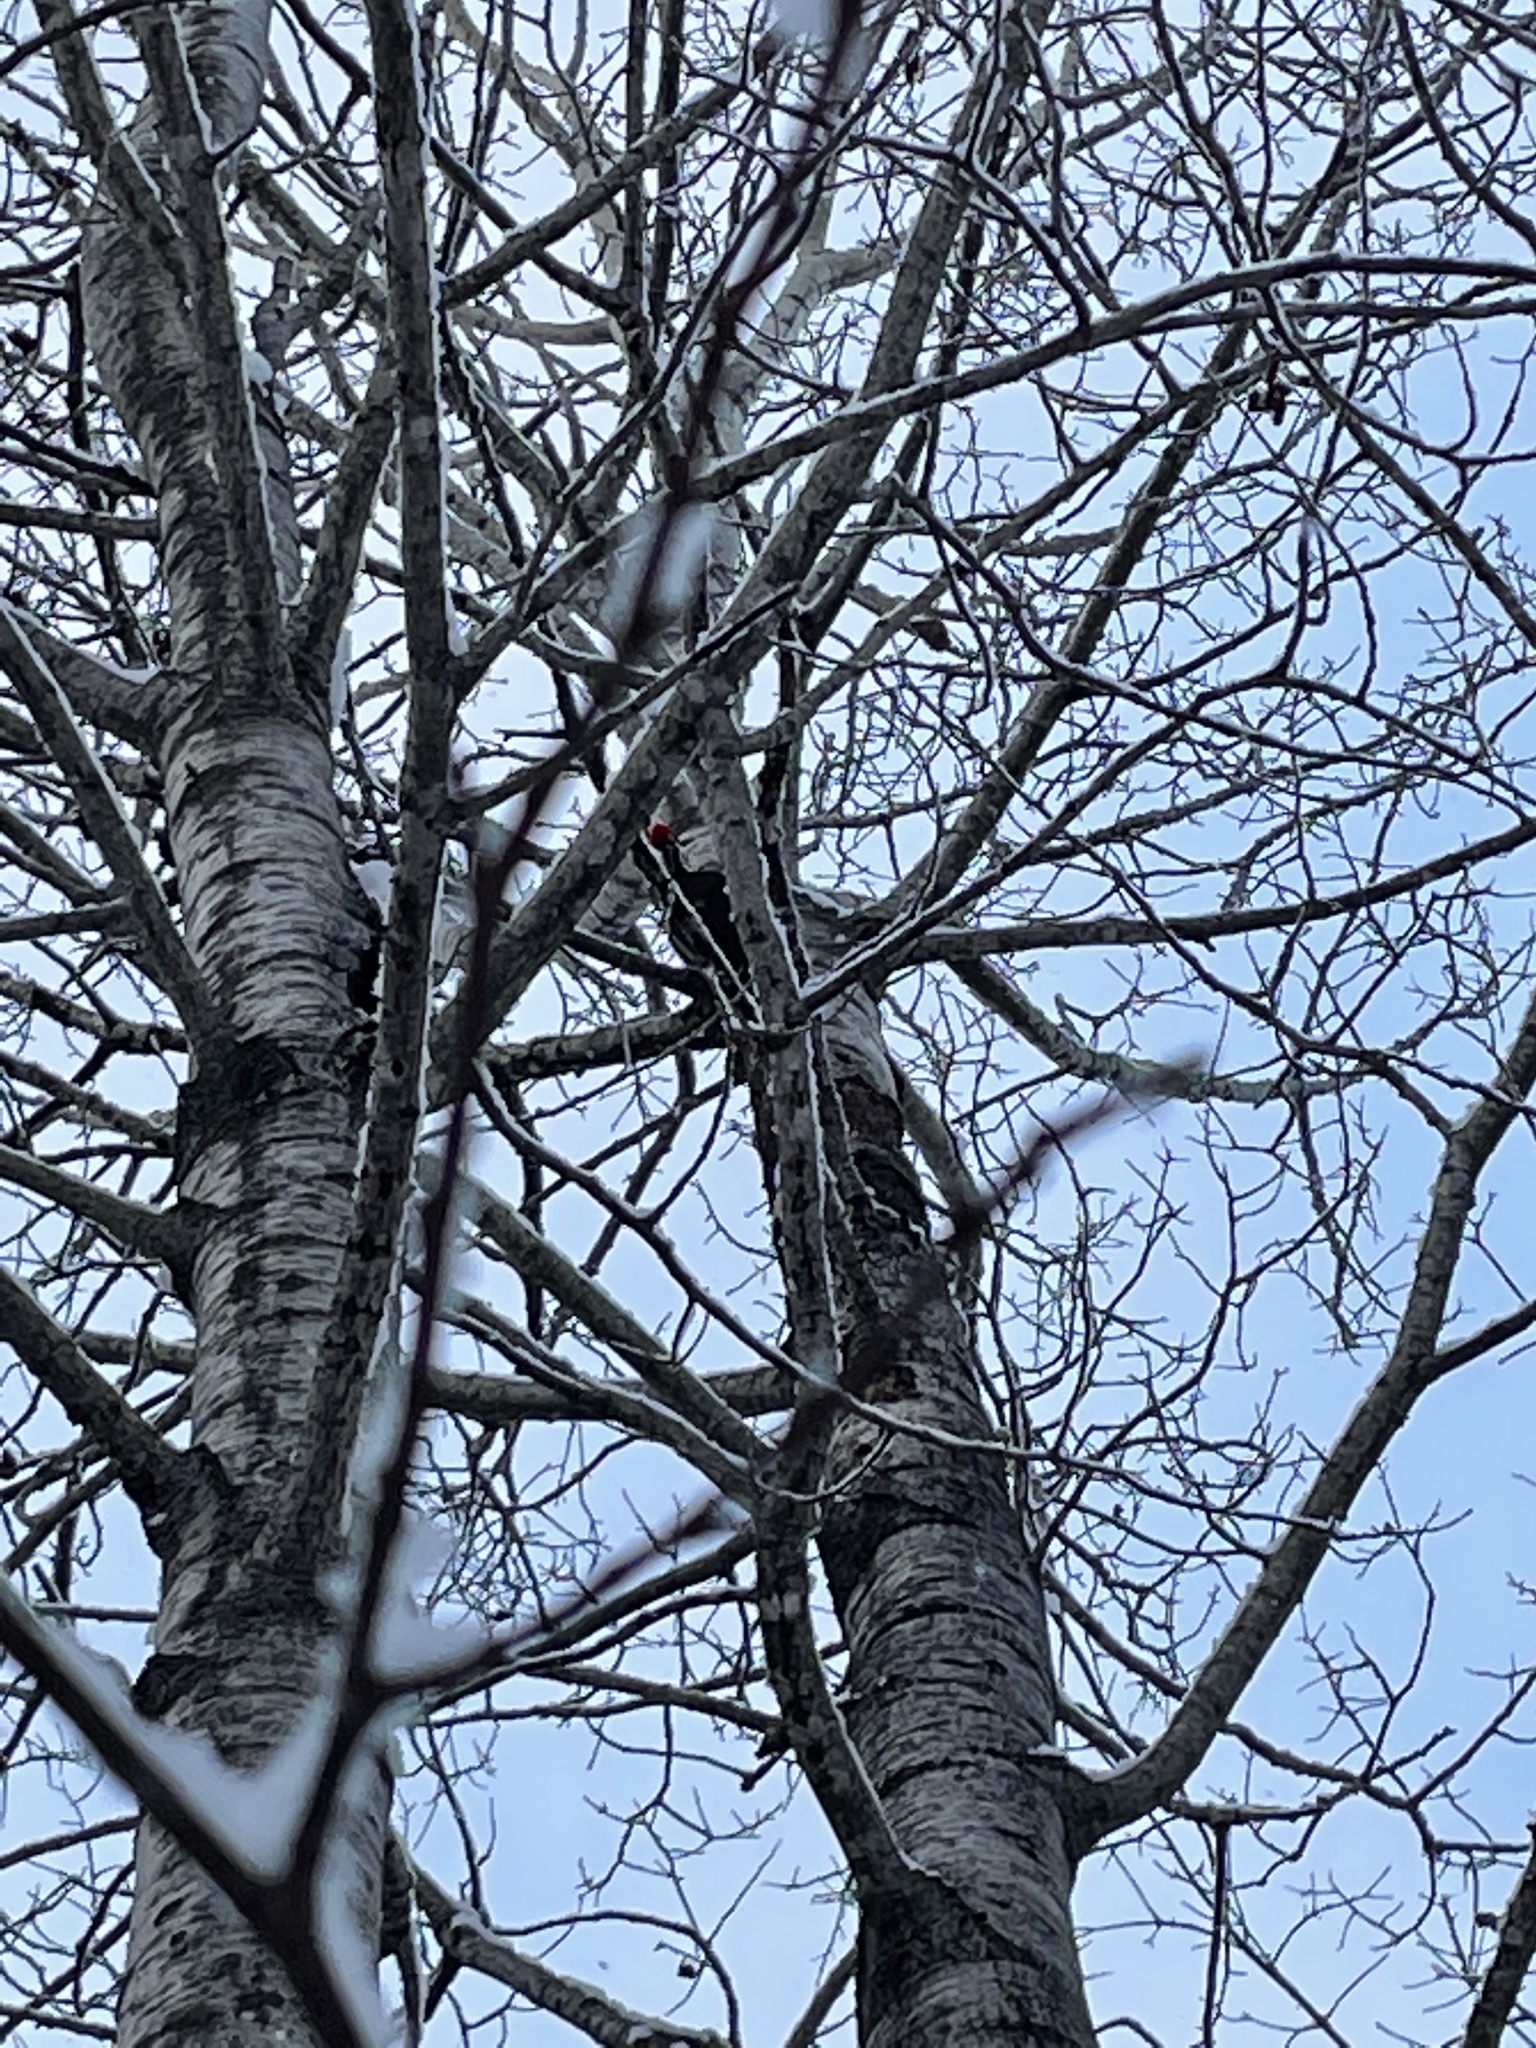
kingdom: Animalia
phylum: Chordata
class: Aves
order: Piciformes
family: Picidae
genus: Dryocopus
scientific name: Dryocopus pileatus
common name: Pileated woodpecker
